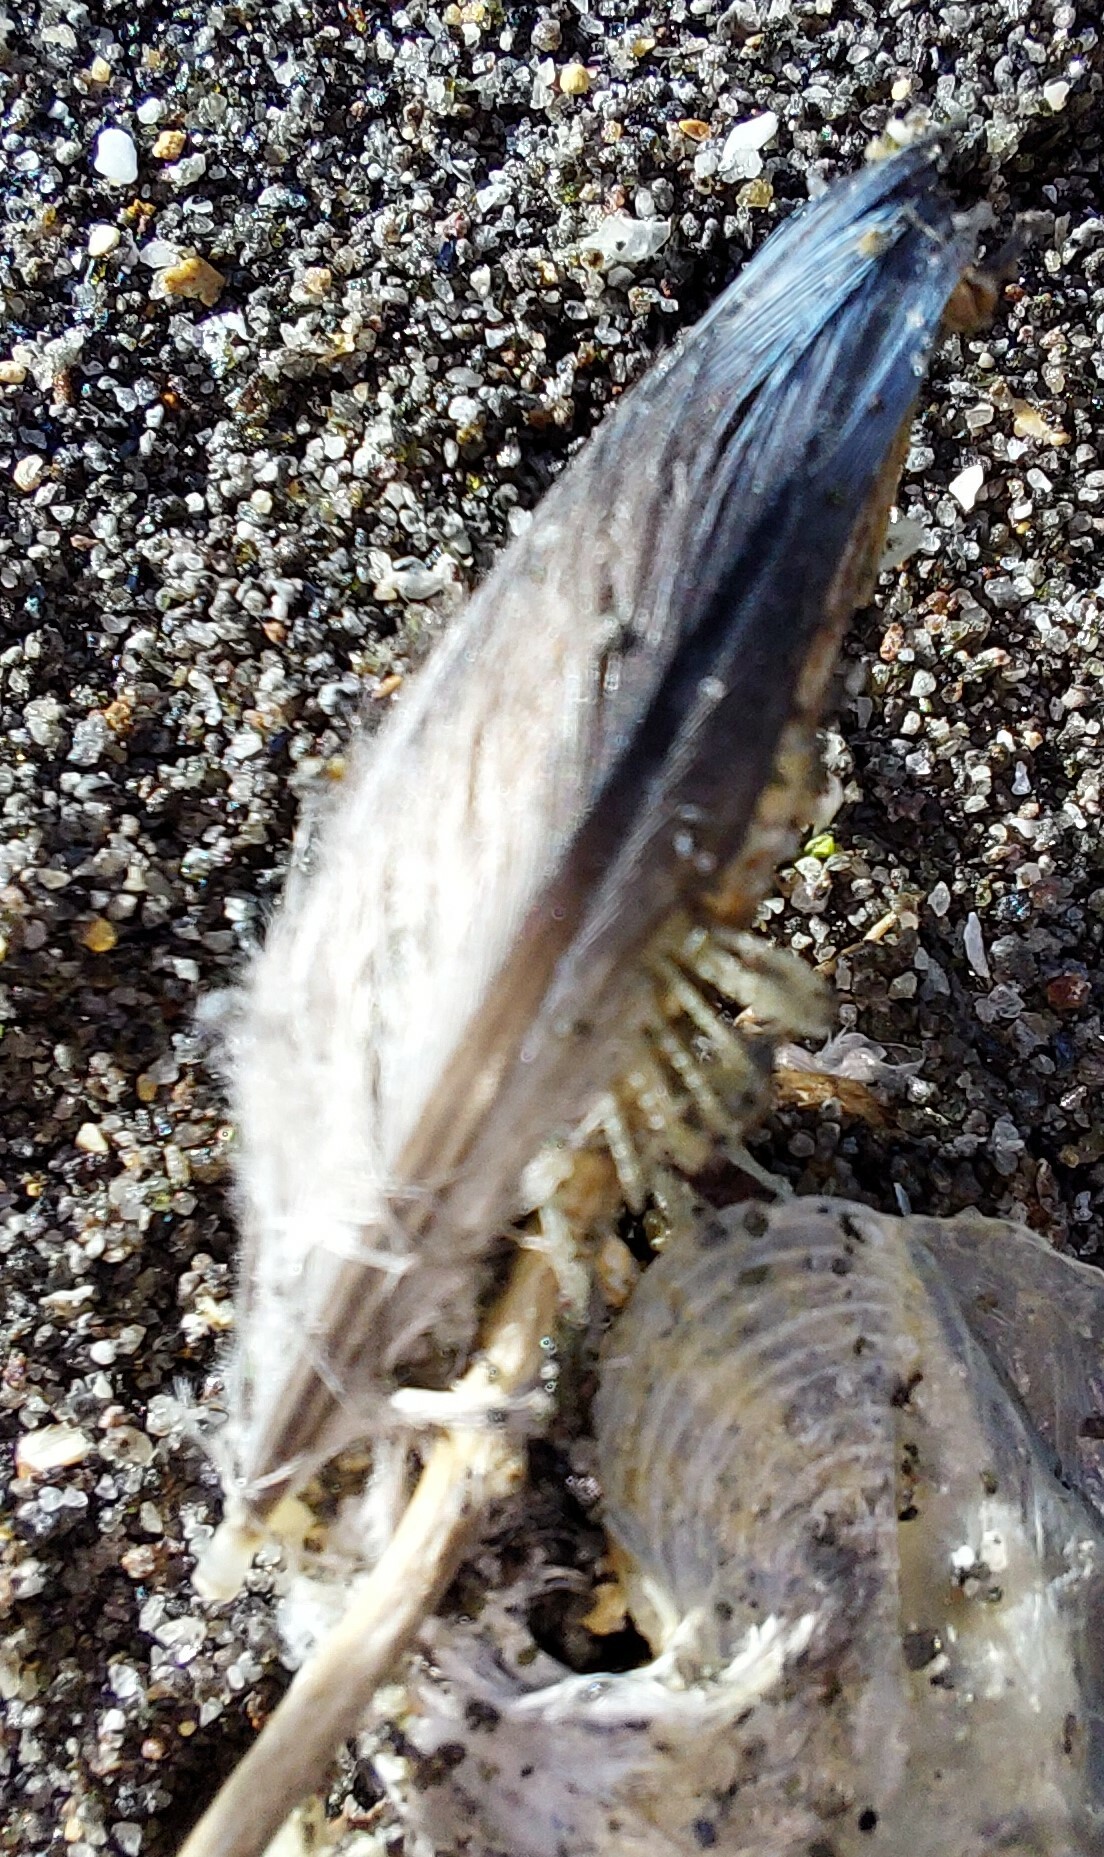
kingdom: Animalia
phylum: Chordata
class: Aves
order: Sphenisciformes
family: Spheniscidae
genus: Eudyptula
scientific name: Eudyptula minor
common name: Little penguin
